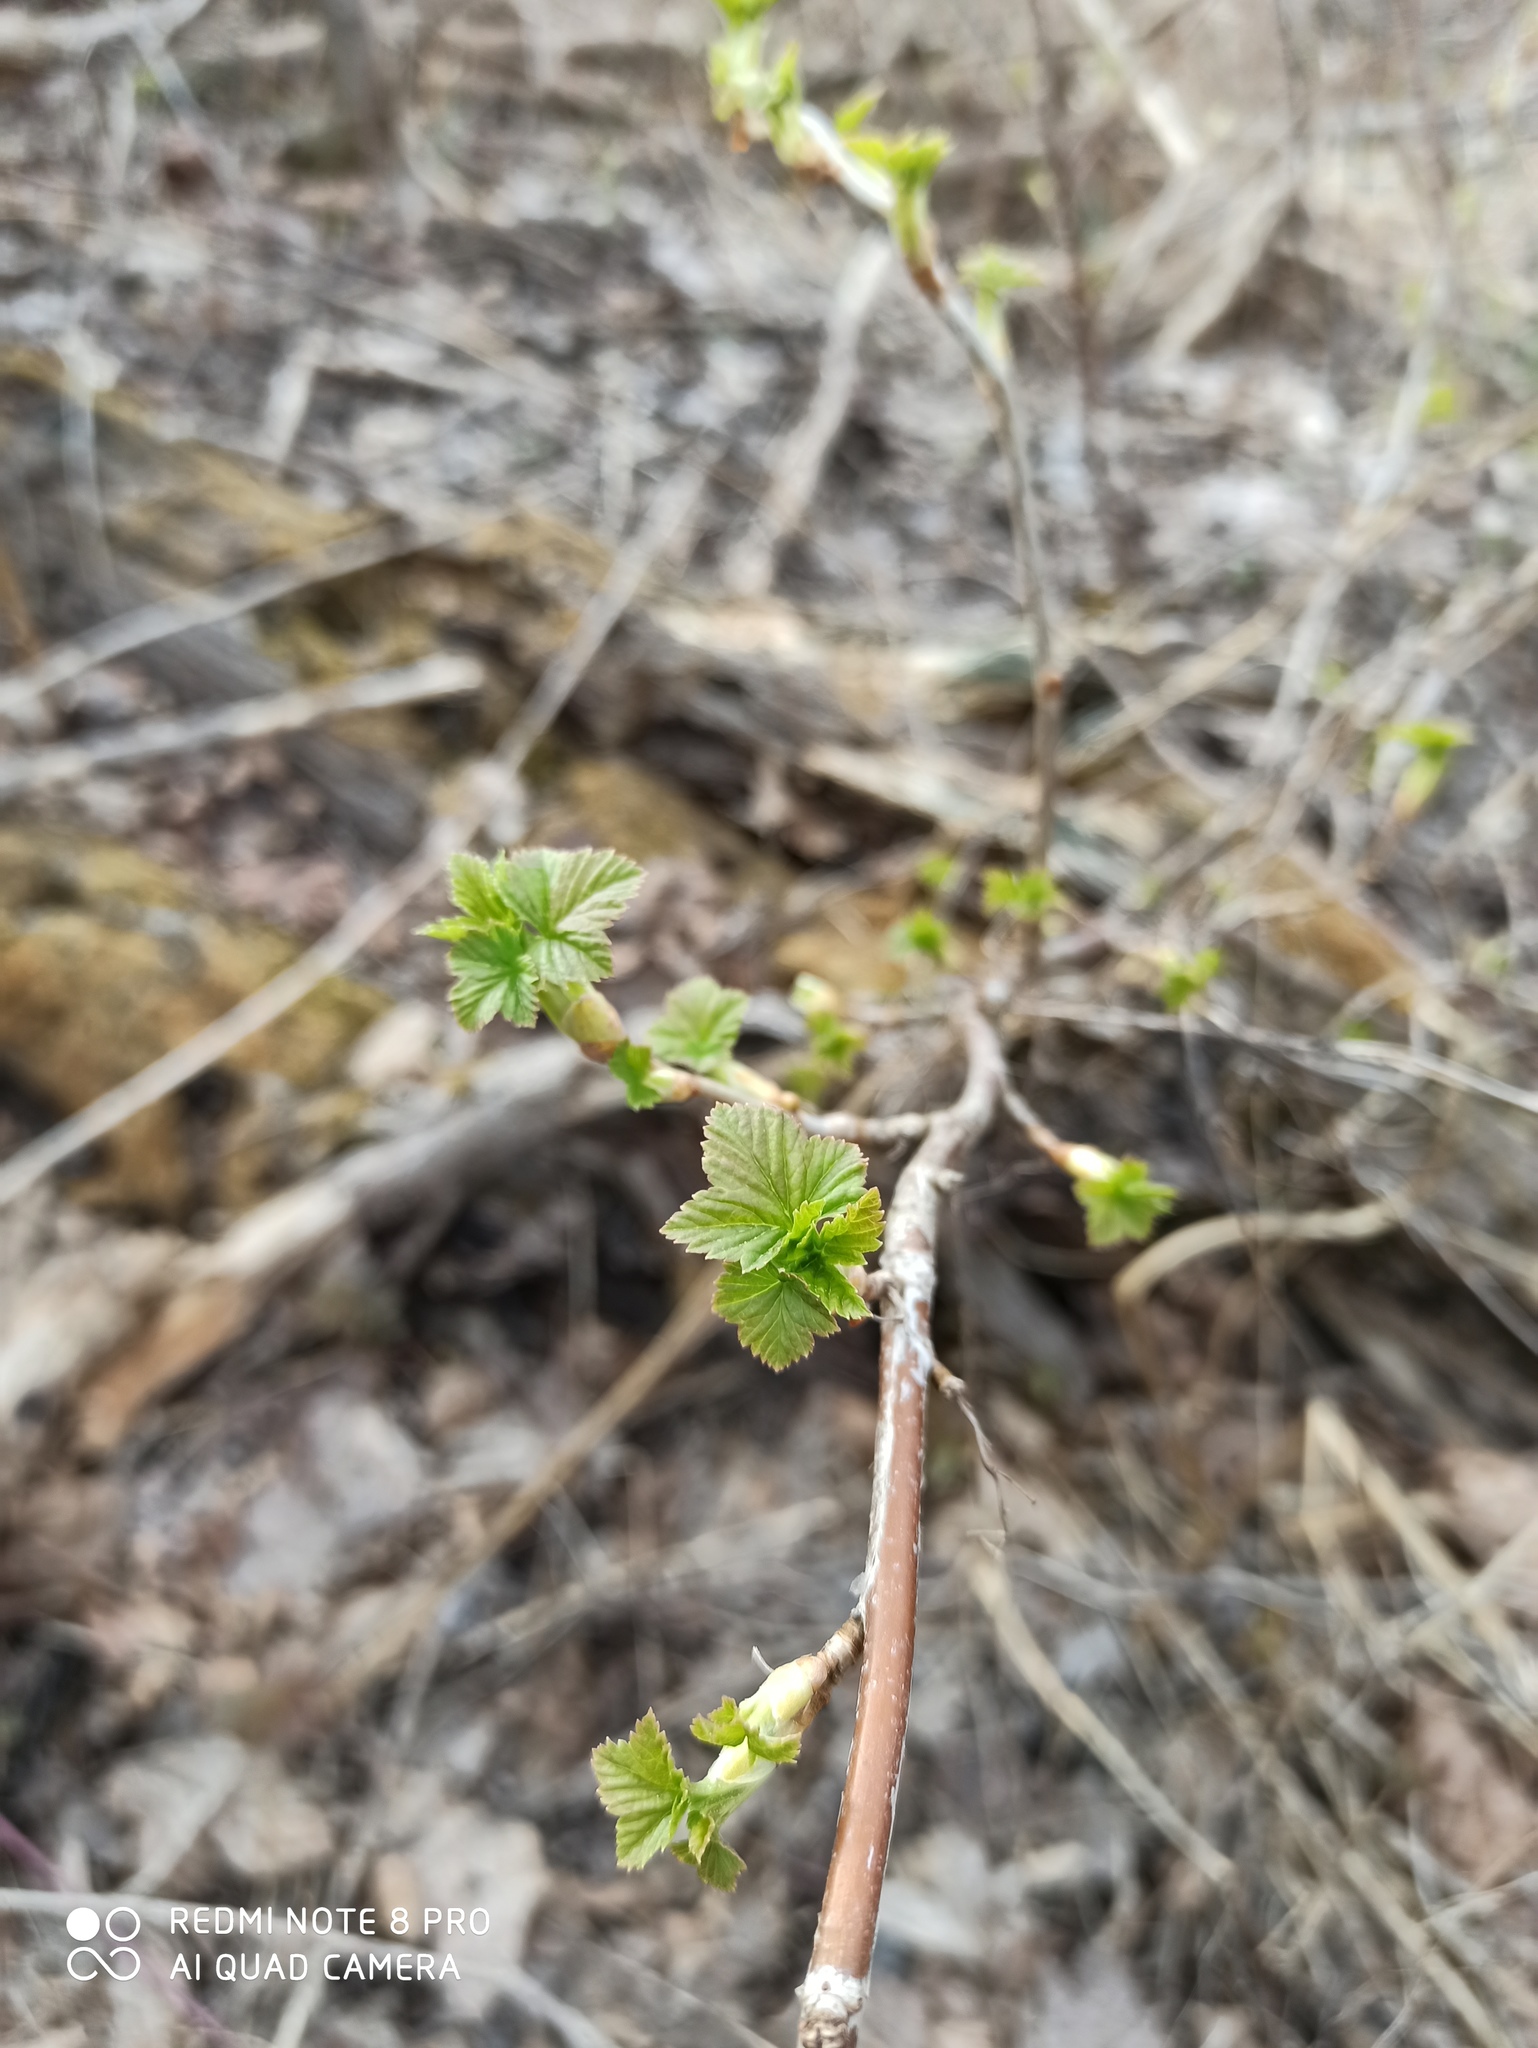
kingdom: Plantae
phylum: Tracheophyta
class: Magnoliopsida
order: Saxifragales
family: Grossulariaceae
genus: Ribes
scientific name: Ribes nigrum
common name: Black currant
